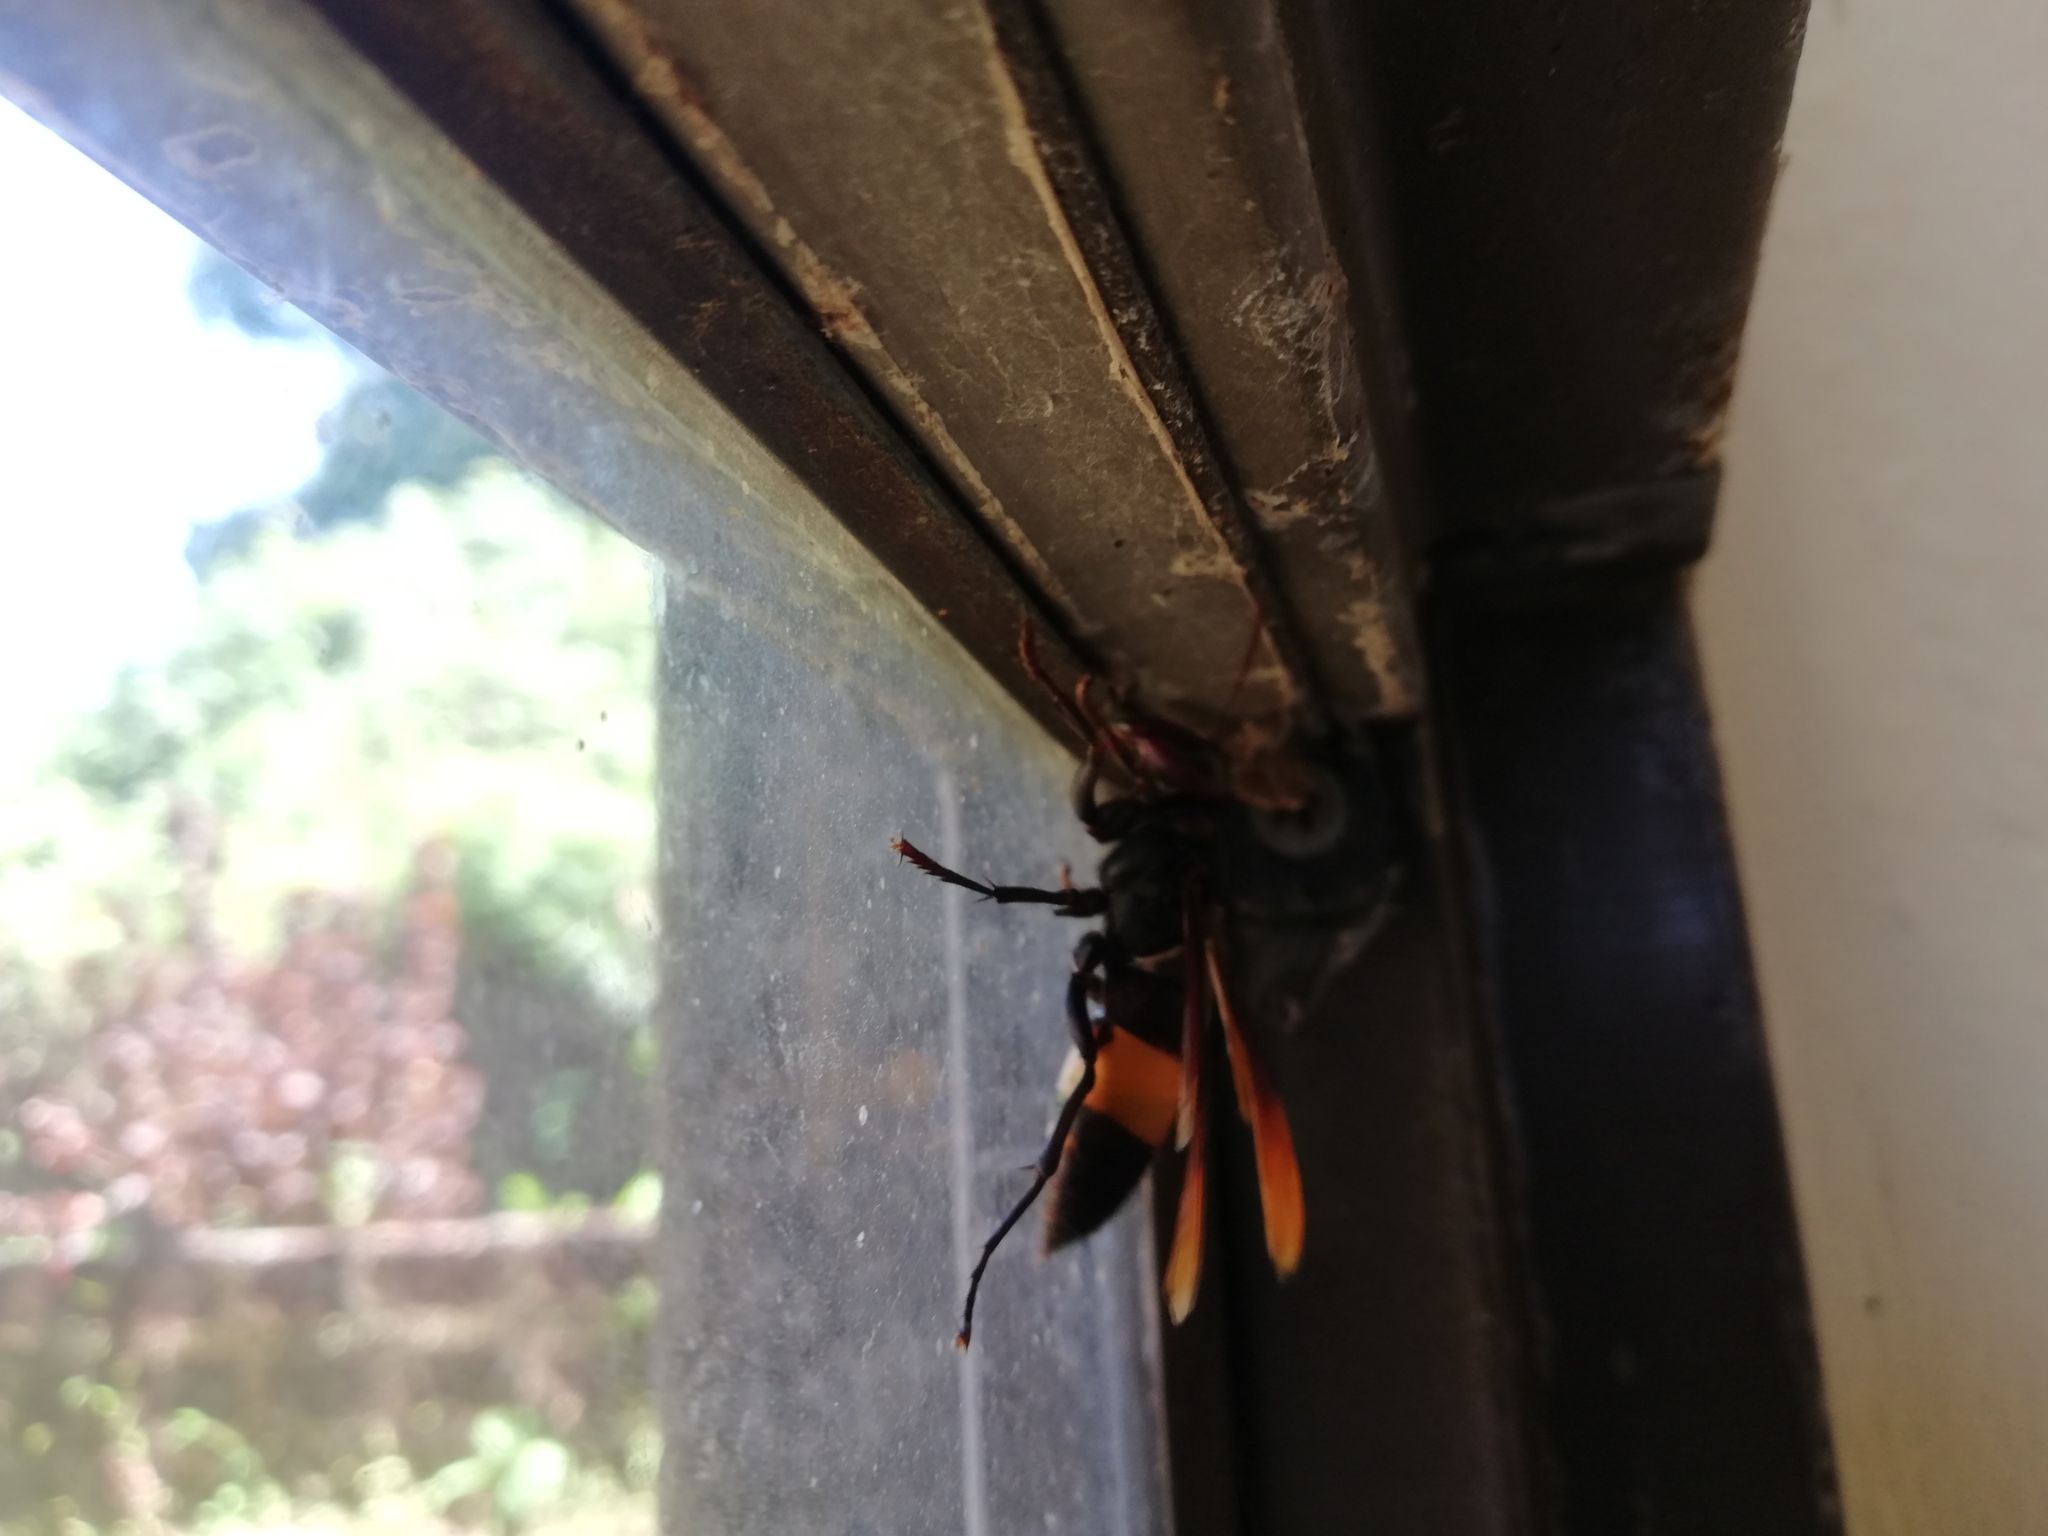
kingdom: Animalia
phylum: Arthropoda
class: Insecta
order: Hymenoptera
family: Vespidae
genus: Vespa
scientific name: Vespa tropica
